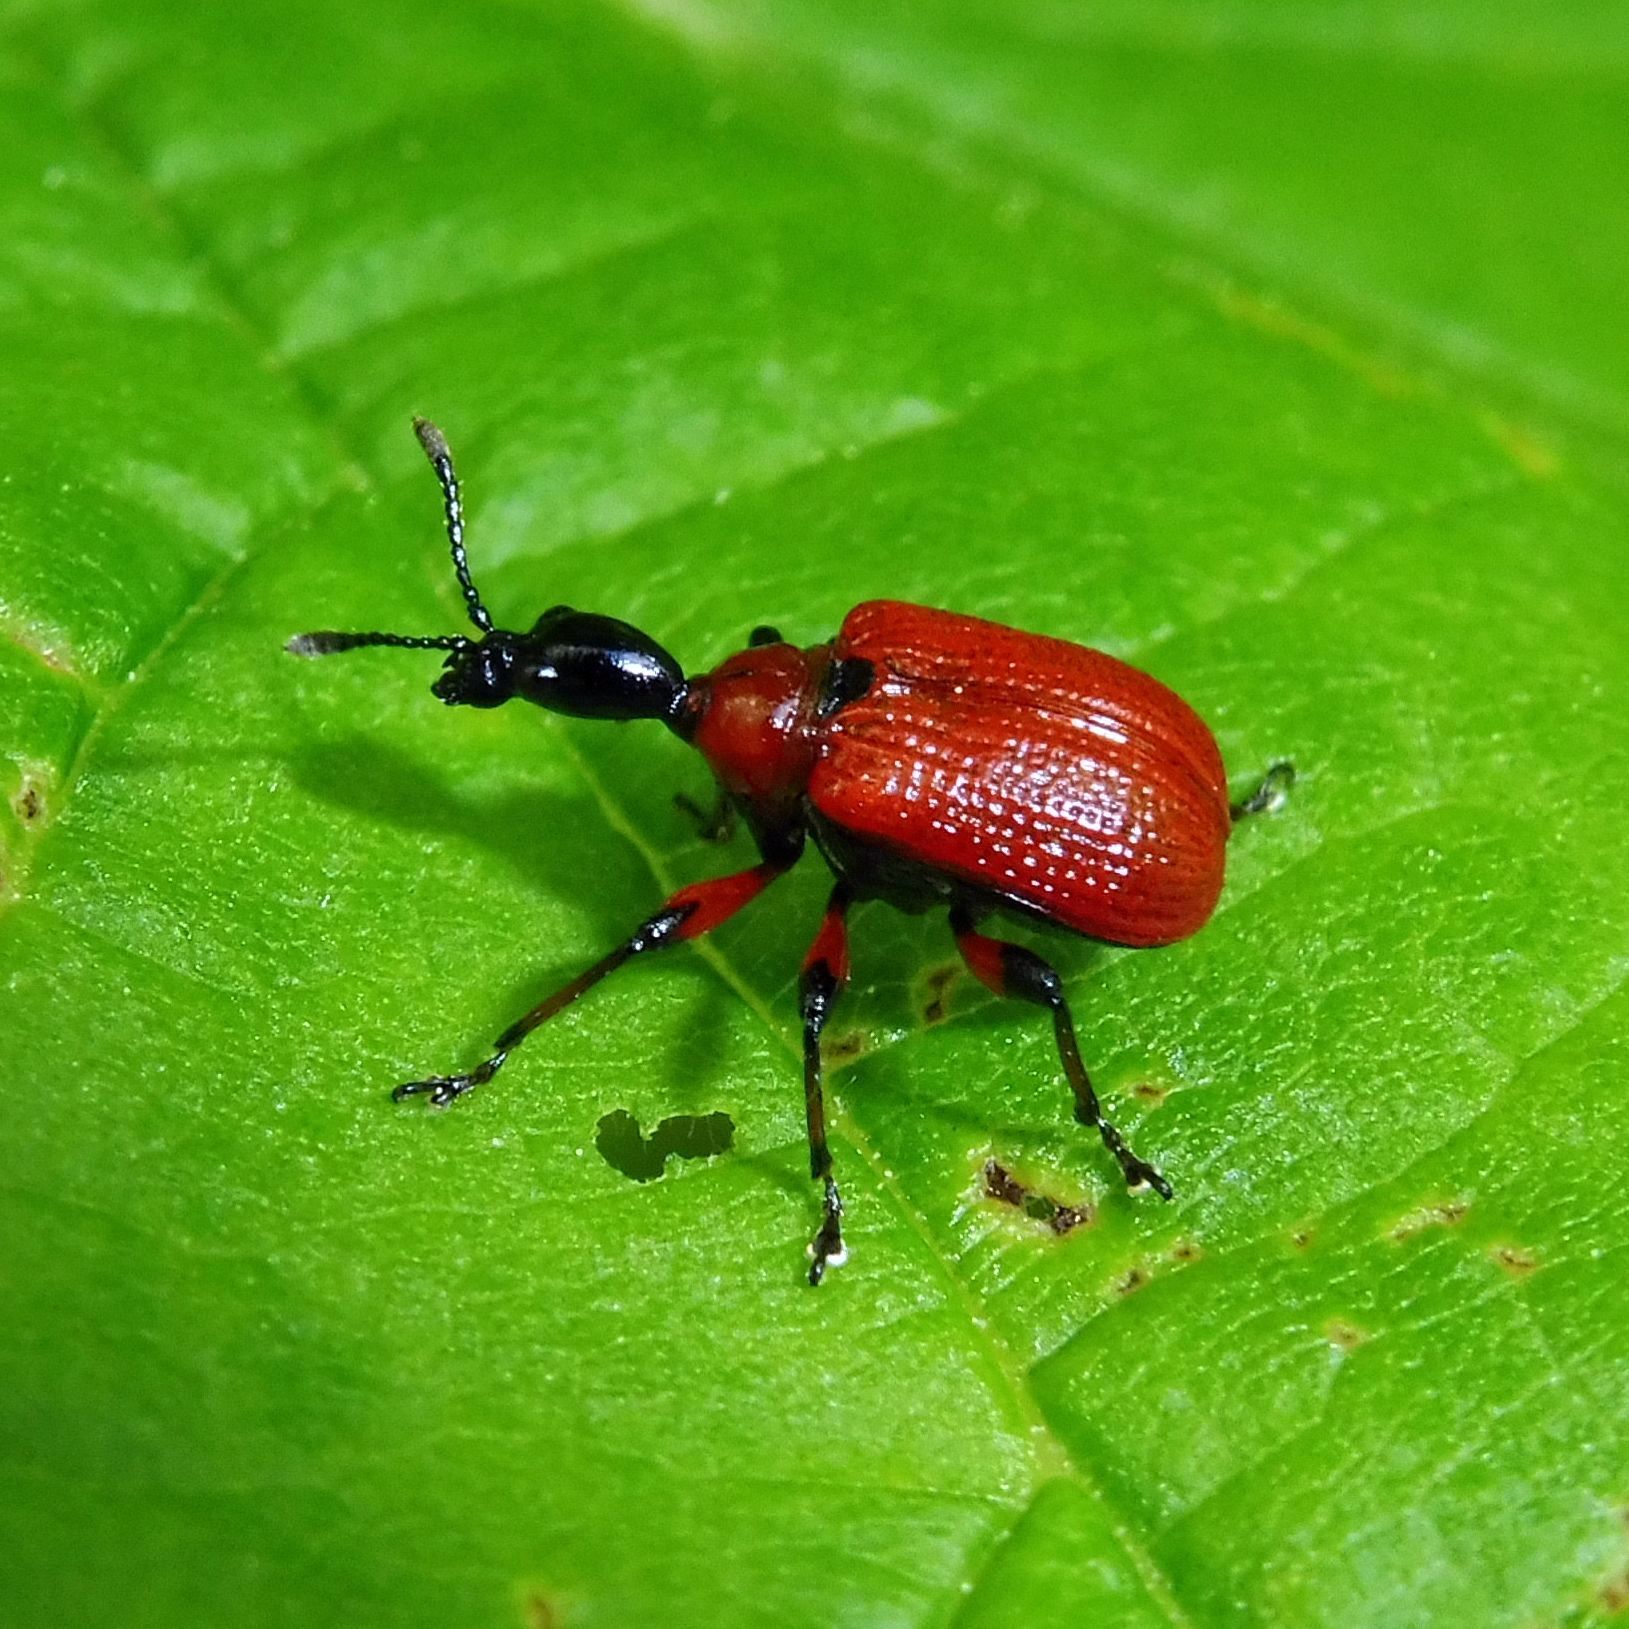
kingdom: Animalia
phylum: Arthropoda
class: Insecta
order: Coleoptera
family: Attelabidae
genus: Apoderus
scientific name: Apoderus coryli
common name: Hazel leaf roller
